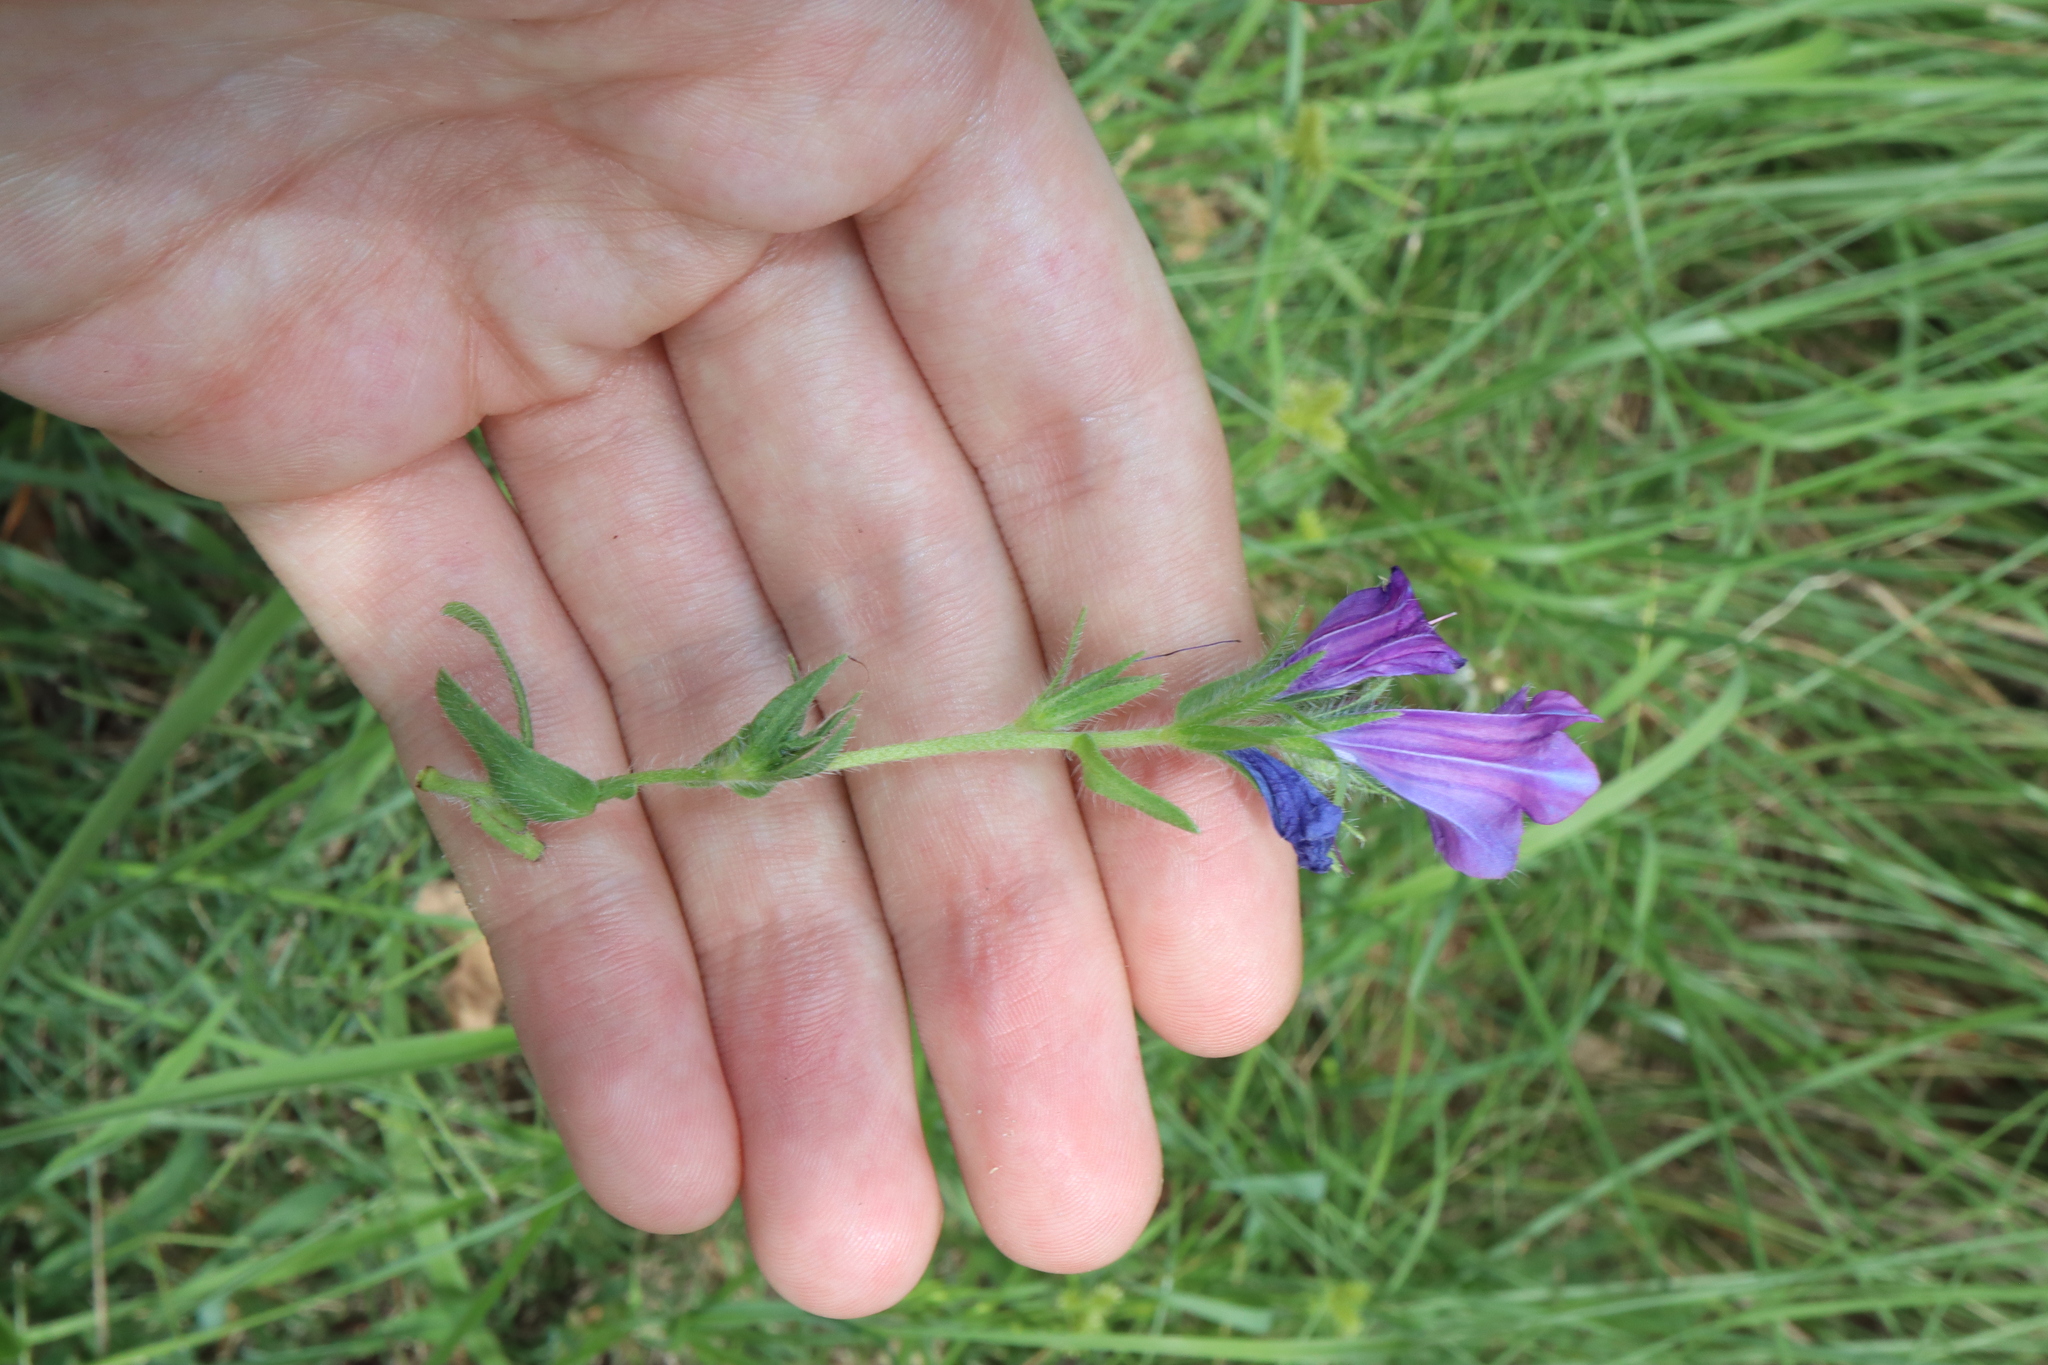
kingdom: Plantae
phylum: Tracheophyta
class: Magnoliopsida
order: Boraginales
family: Boraginaceae
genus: Echium
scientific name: Echium plantagineum
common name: Purple viper's-bugloss
